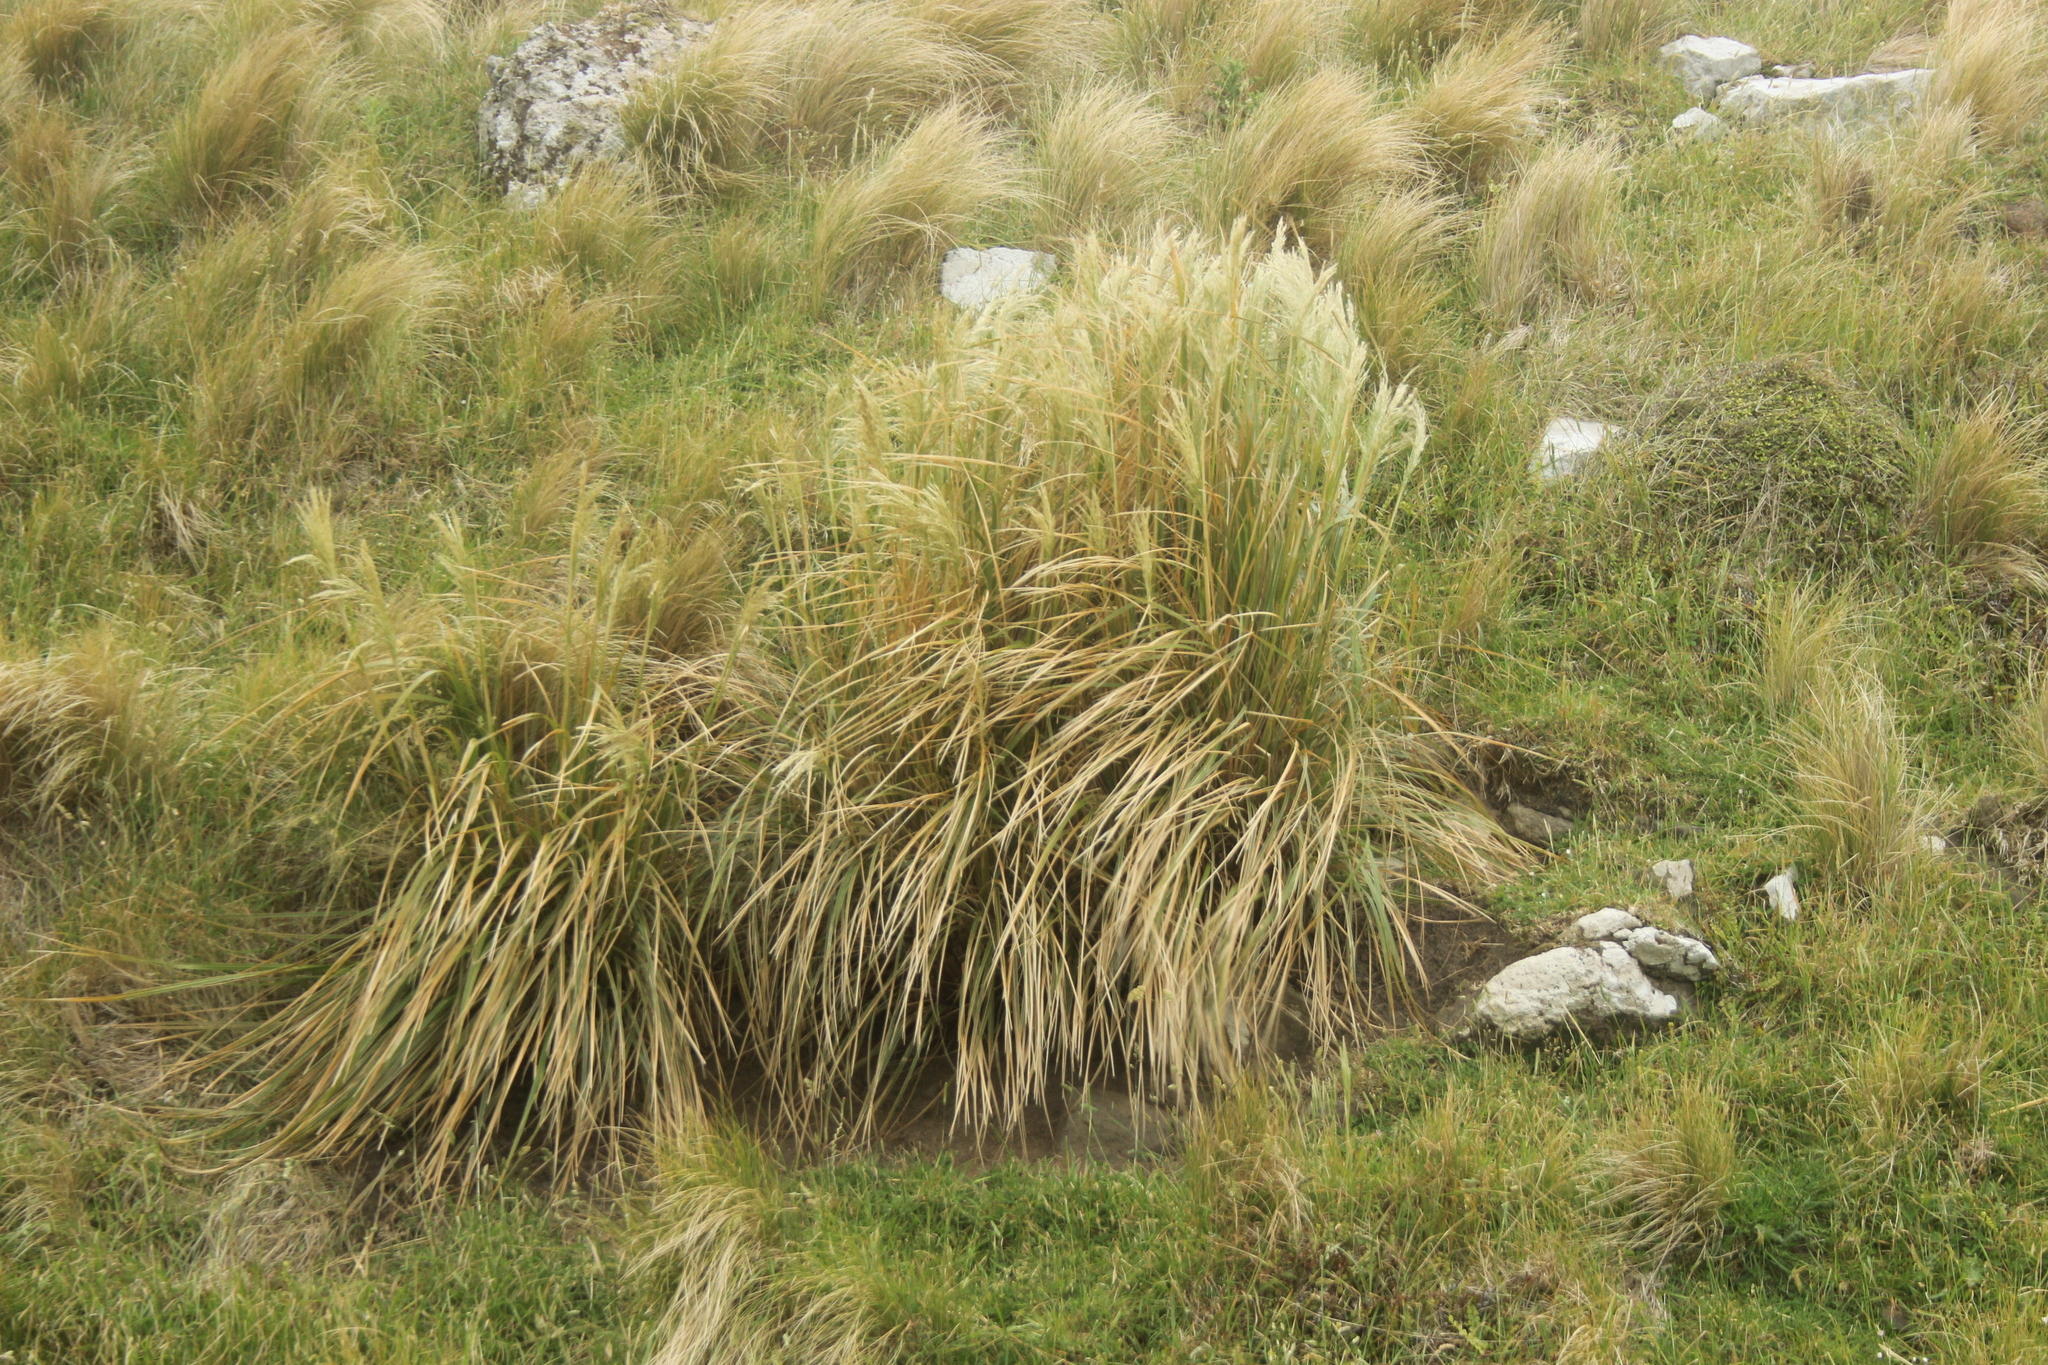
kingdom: Plantae
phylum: Tracheophyta
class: Liliopsida
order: Poales
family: Poaceae
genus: Austroderia
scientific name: Austroderia richardii
